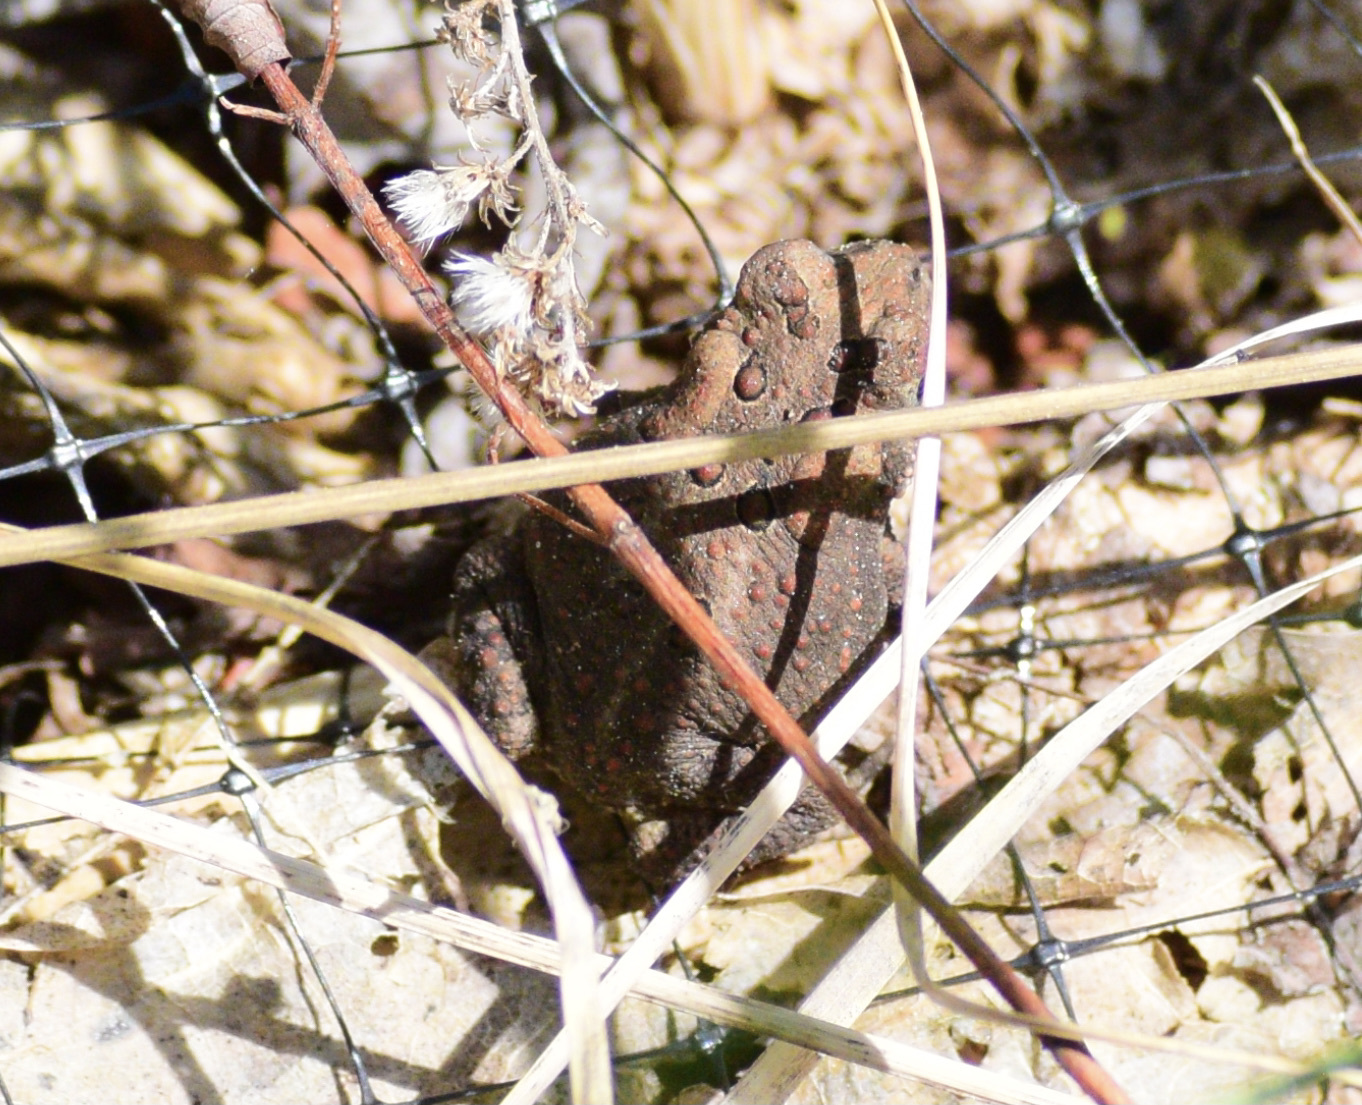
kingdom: Animalia
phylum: Chordata
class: Amphibia
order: Anura
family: Bufonidae
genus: Anaxyrus
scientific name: Anaxyrus americanus
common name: American toad
